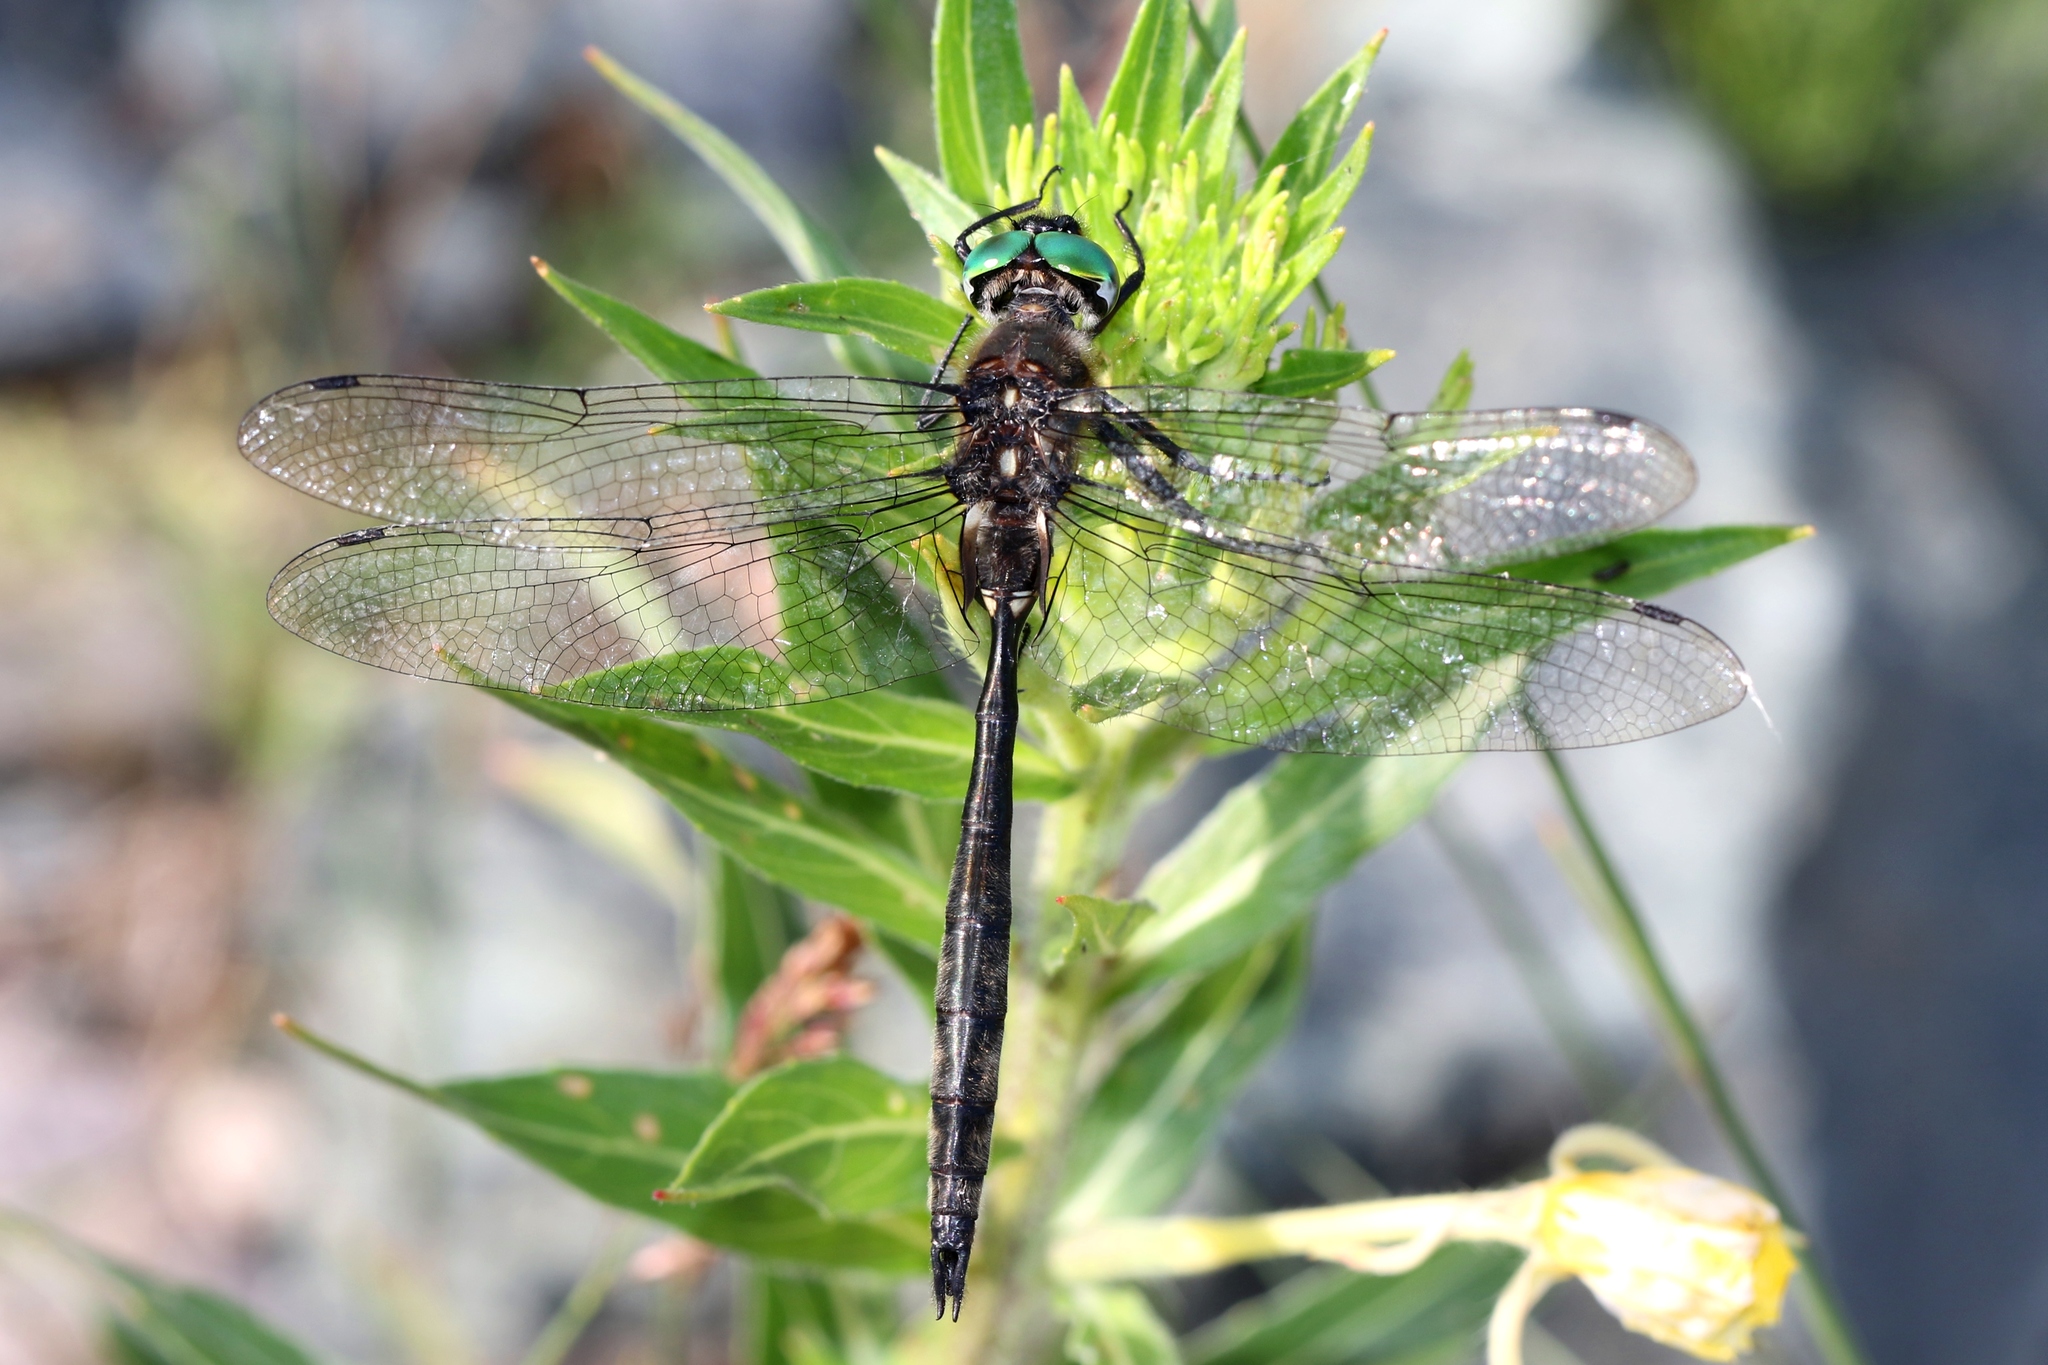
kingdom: Animalia
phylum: Arthropoda
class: Insecta
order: Odonata
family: Corduliidae
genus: Somatochlora
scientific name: Somatochlora elongata
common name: Ski-tipped emerald
